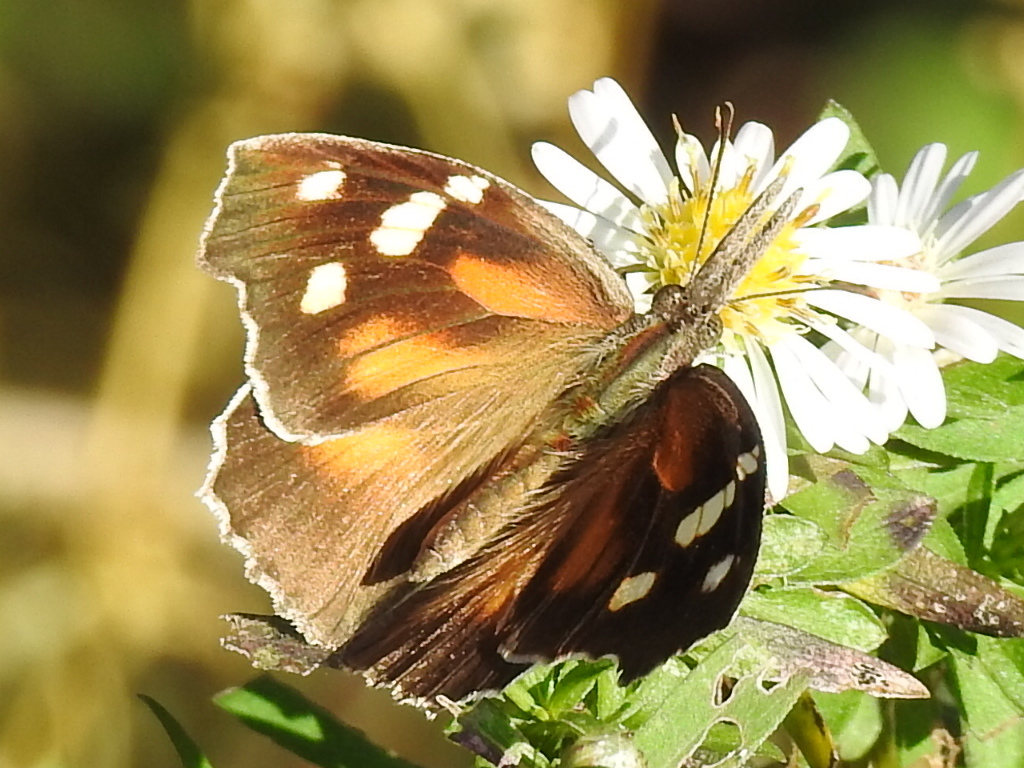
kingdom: Animalia
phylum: Arthropoda
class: Insecta
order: Lepidoptera
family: Nymphalidae
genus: Libytheana
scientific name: Libytheana carinenta
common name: American snout
